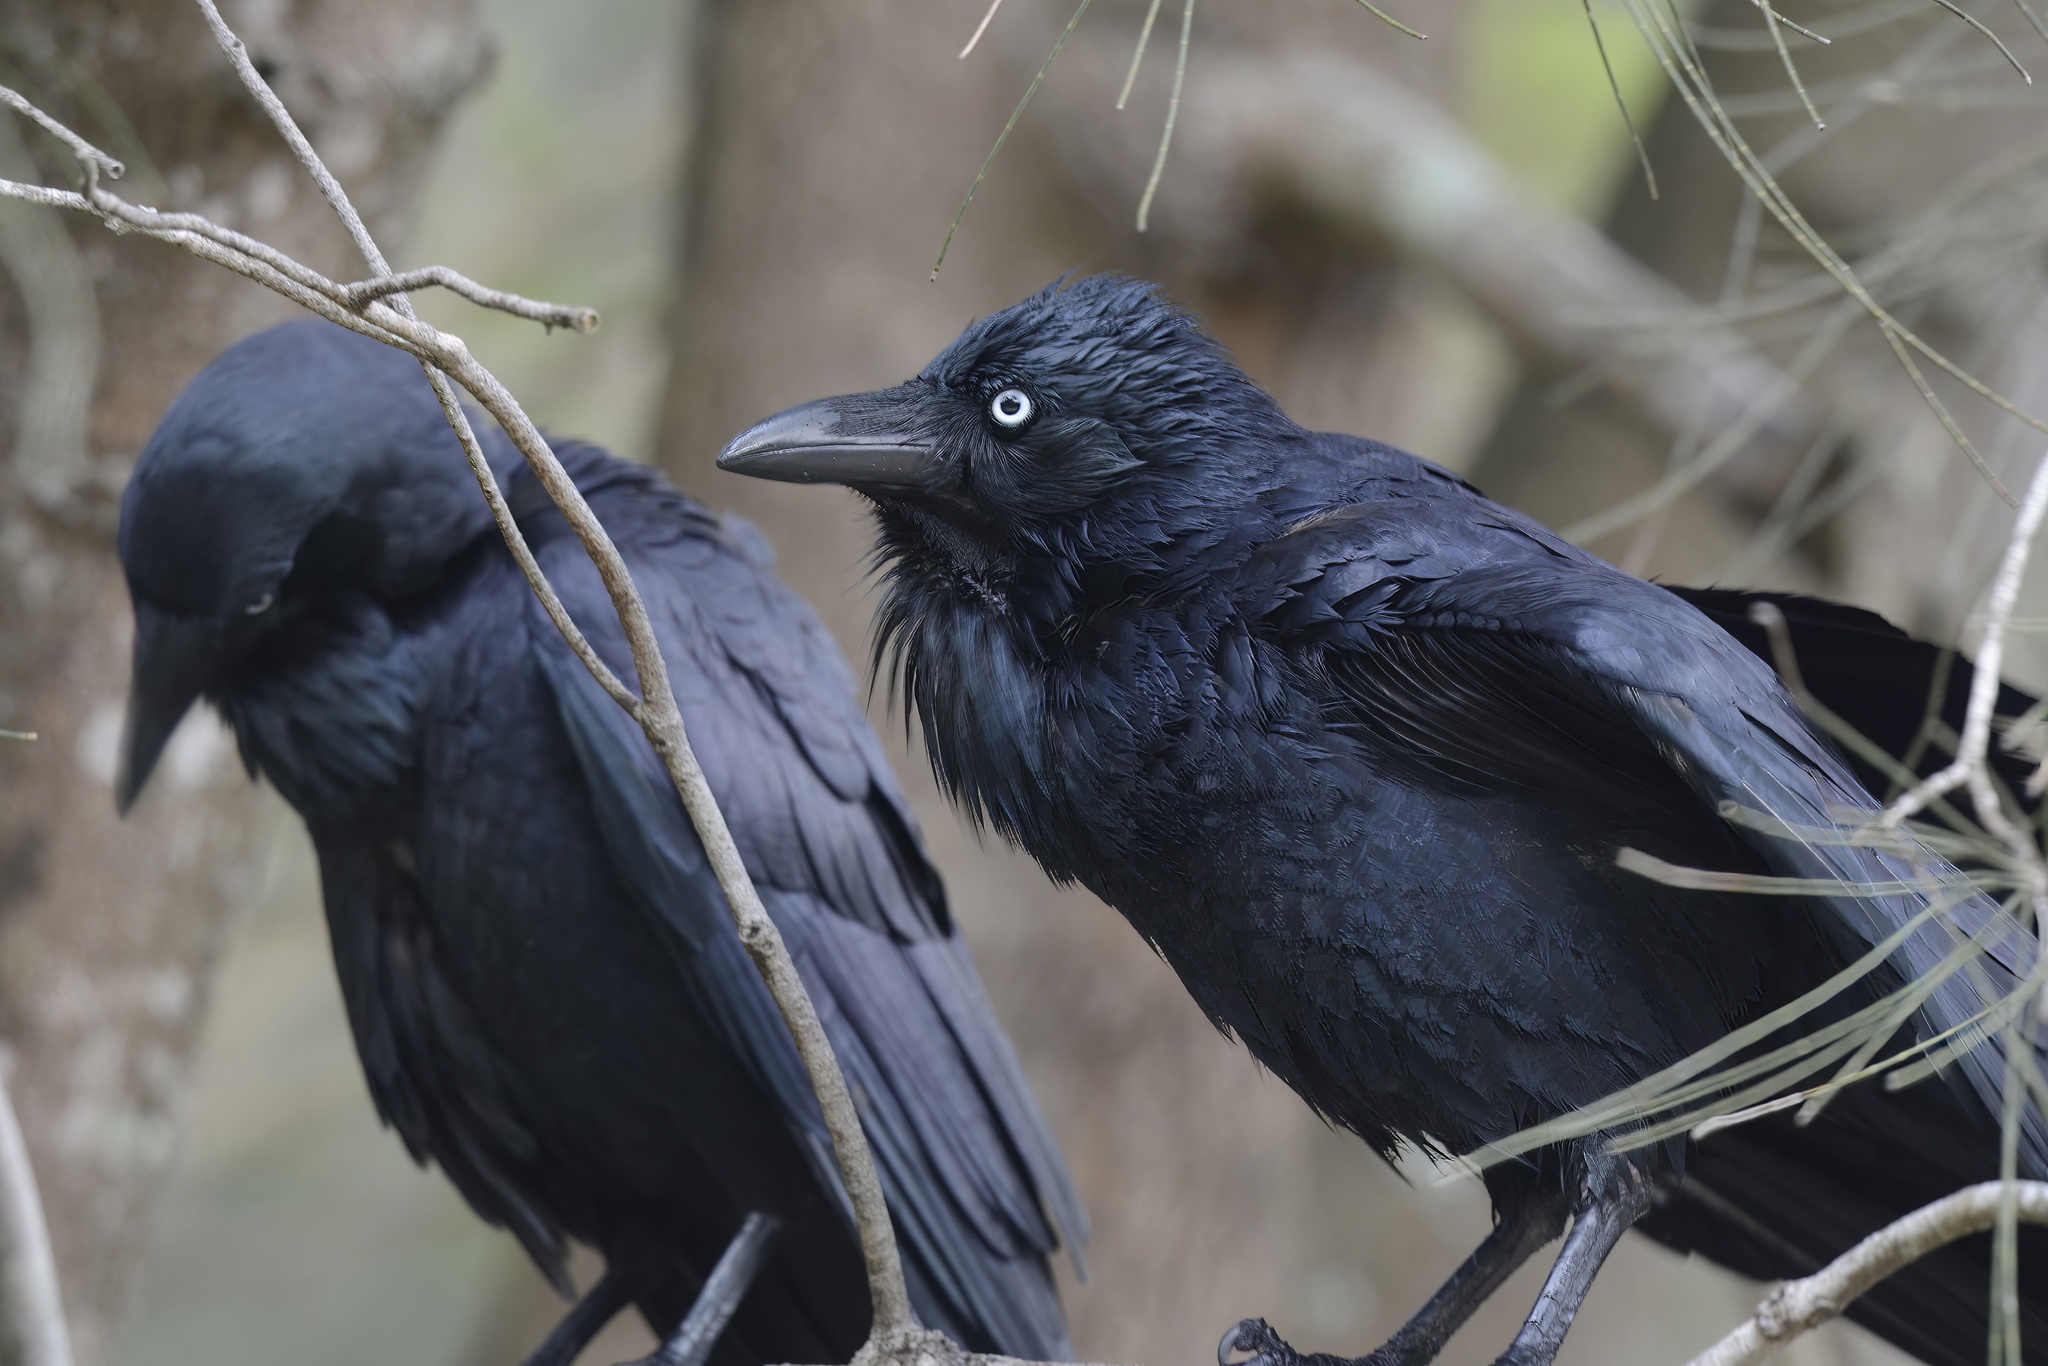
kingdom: Animalia
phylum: Chordata
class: Aves
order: Passeriformes
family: Corvidae
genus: Corvus
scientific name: Corvus coronoides
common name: Australian raven
